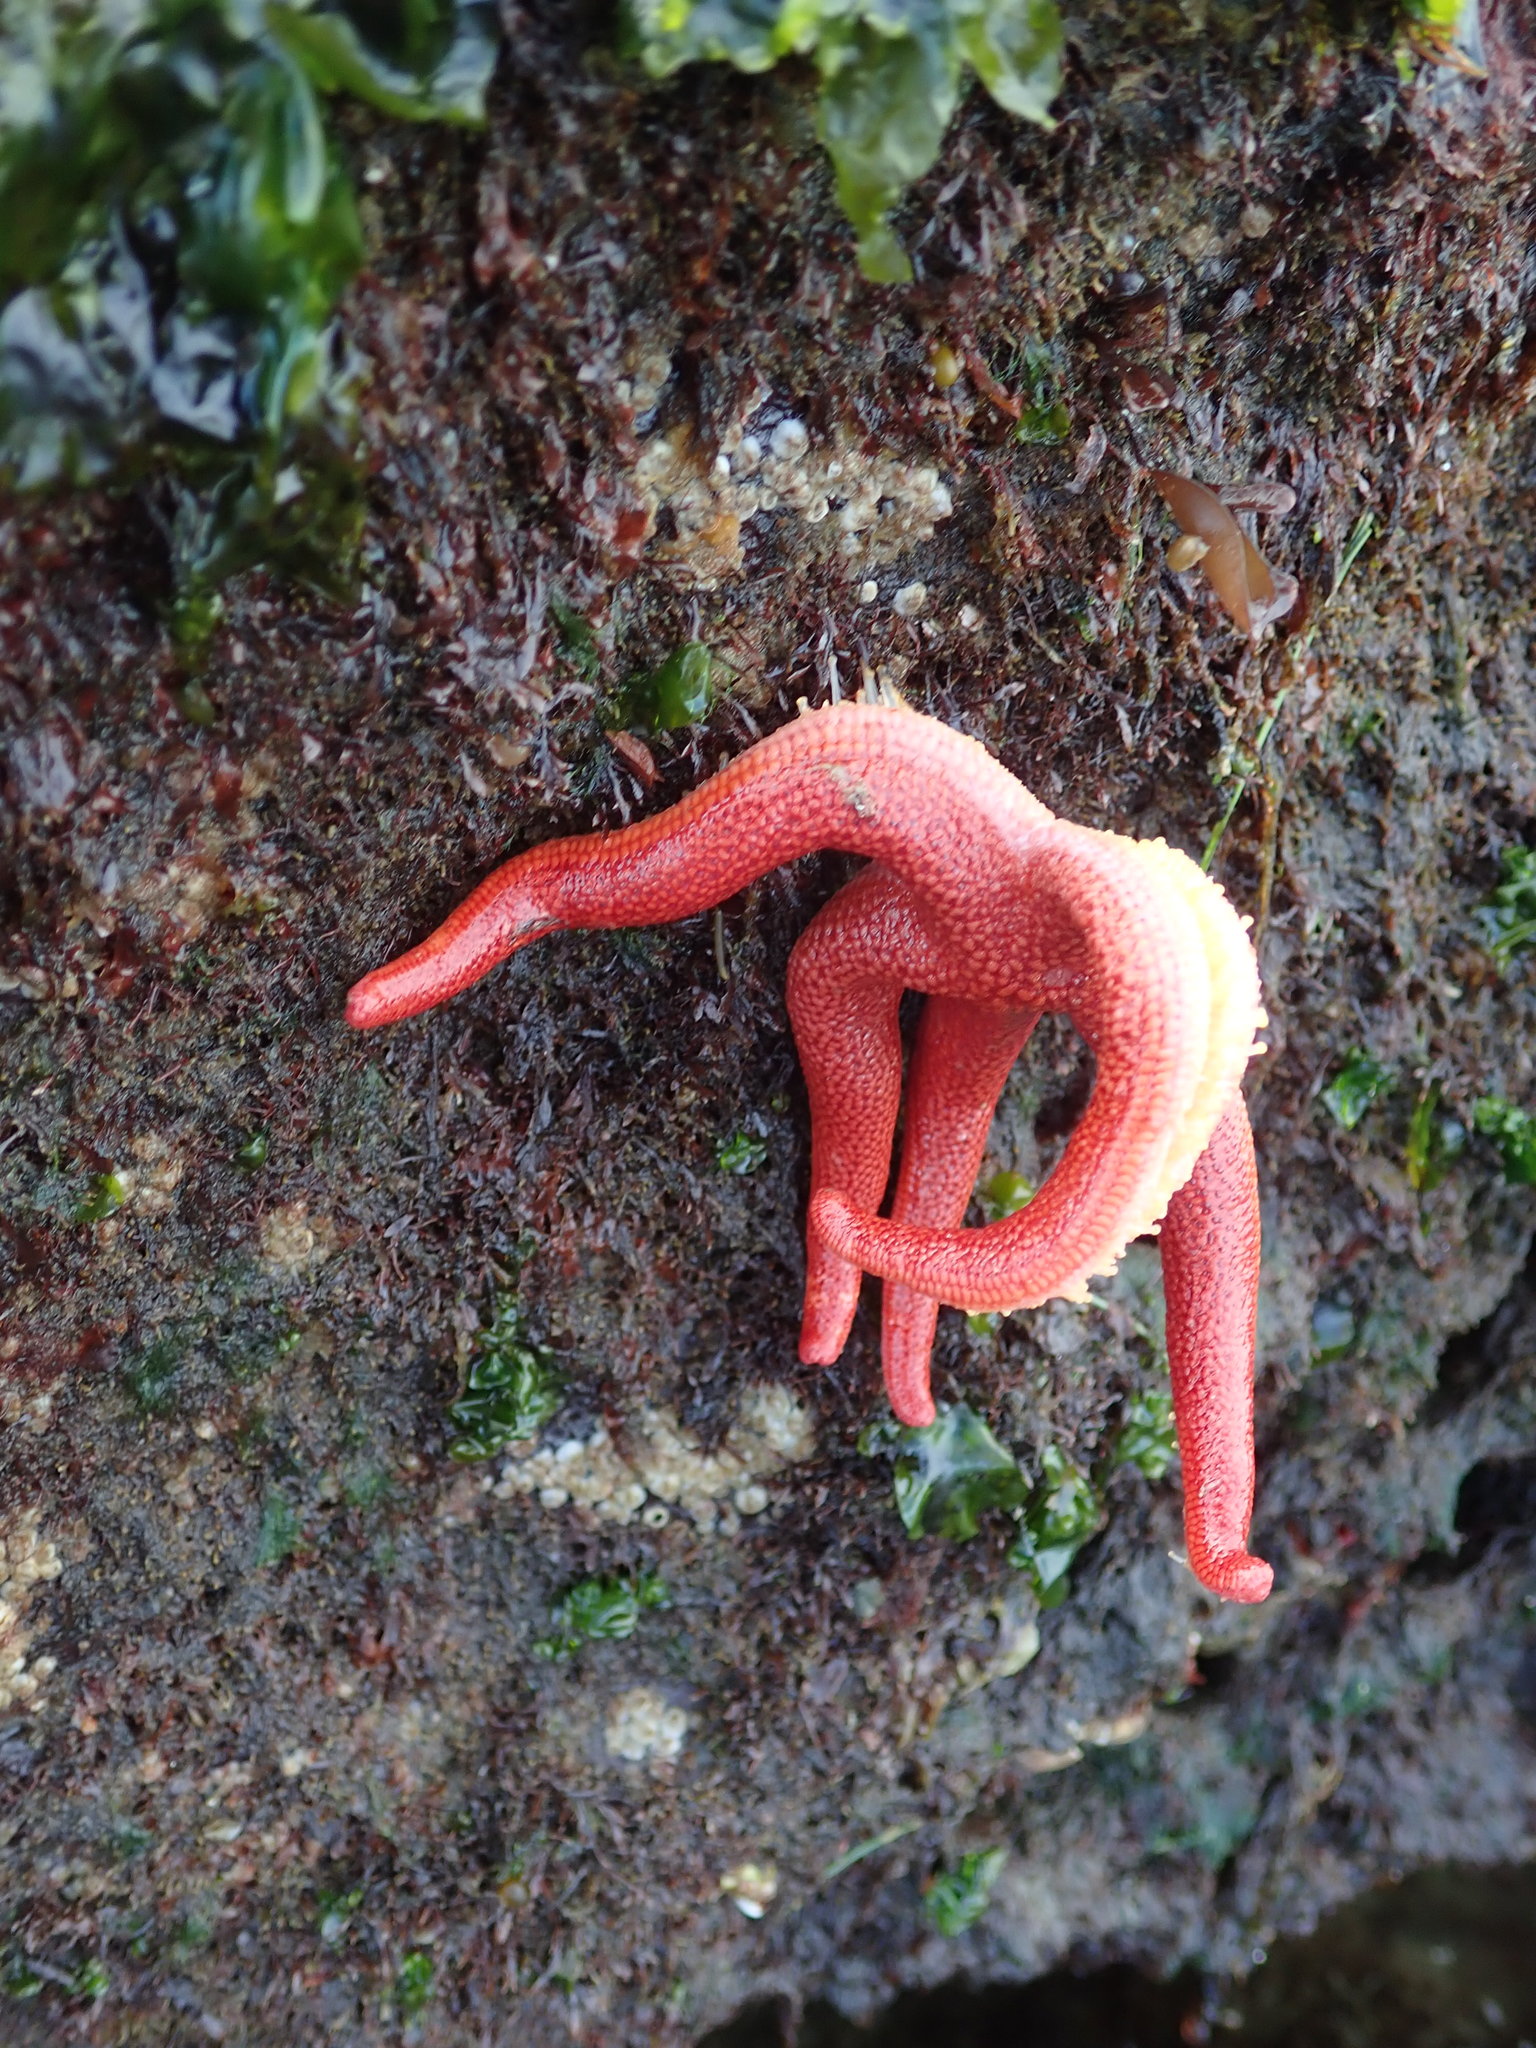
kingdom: Animalia
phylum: Echinodermata
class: Asteroidea
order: Spinulosida
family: Echinasteridae
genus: Henricia
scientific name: Henricia leviuscula
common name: Pacific blood star
